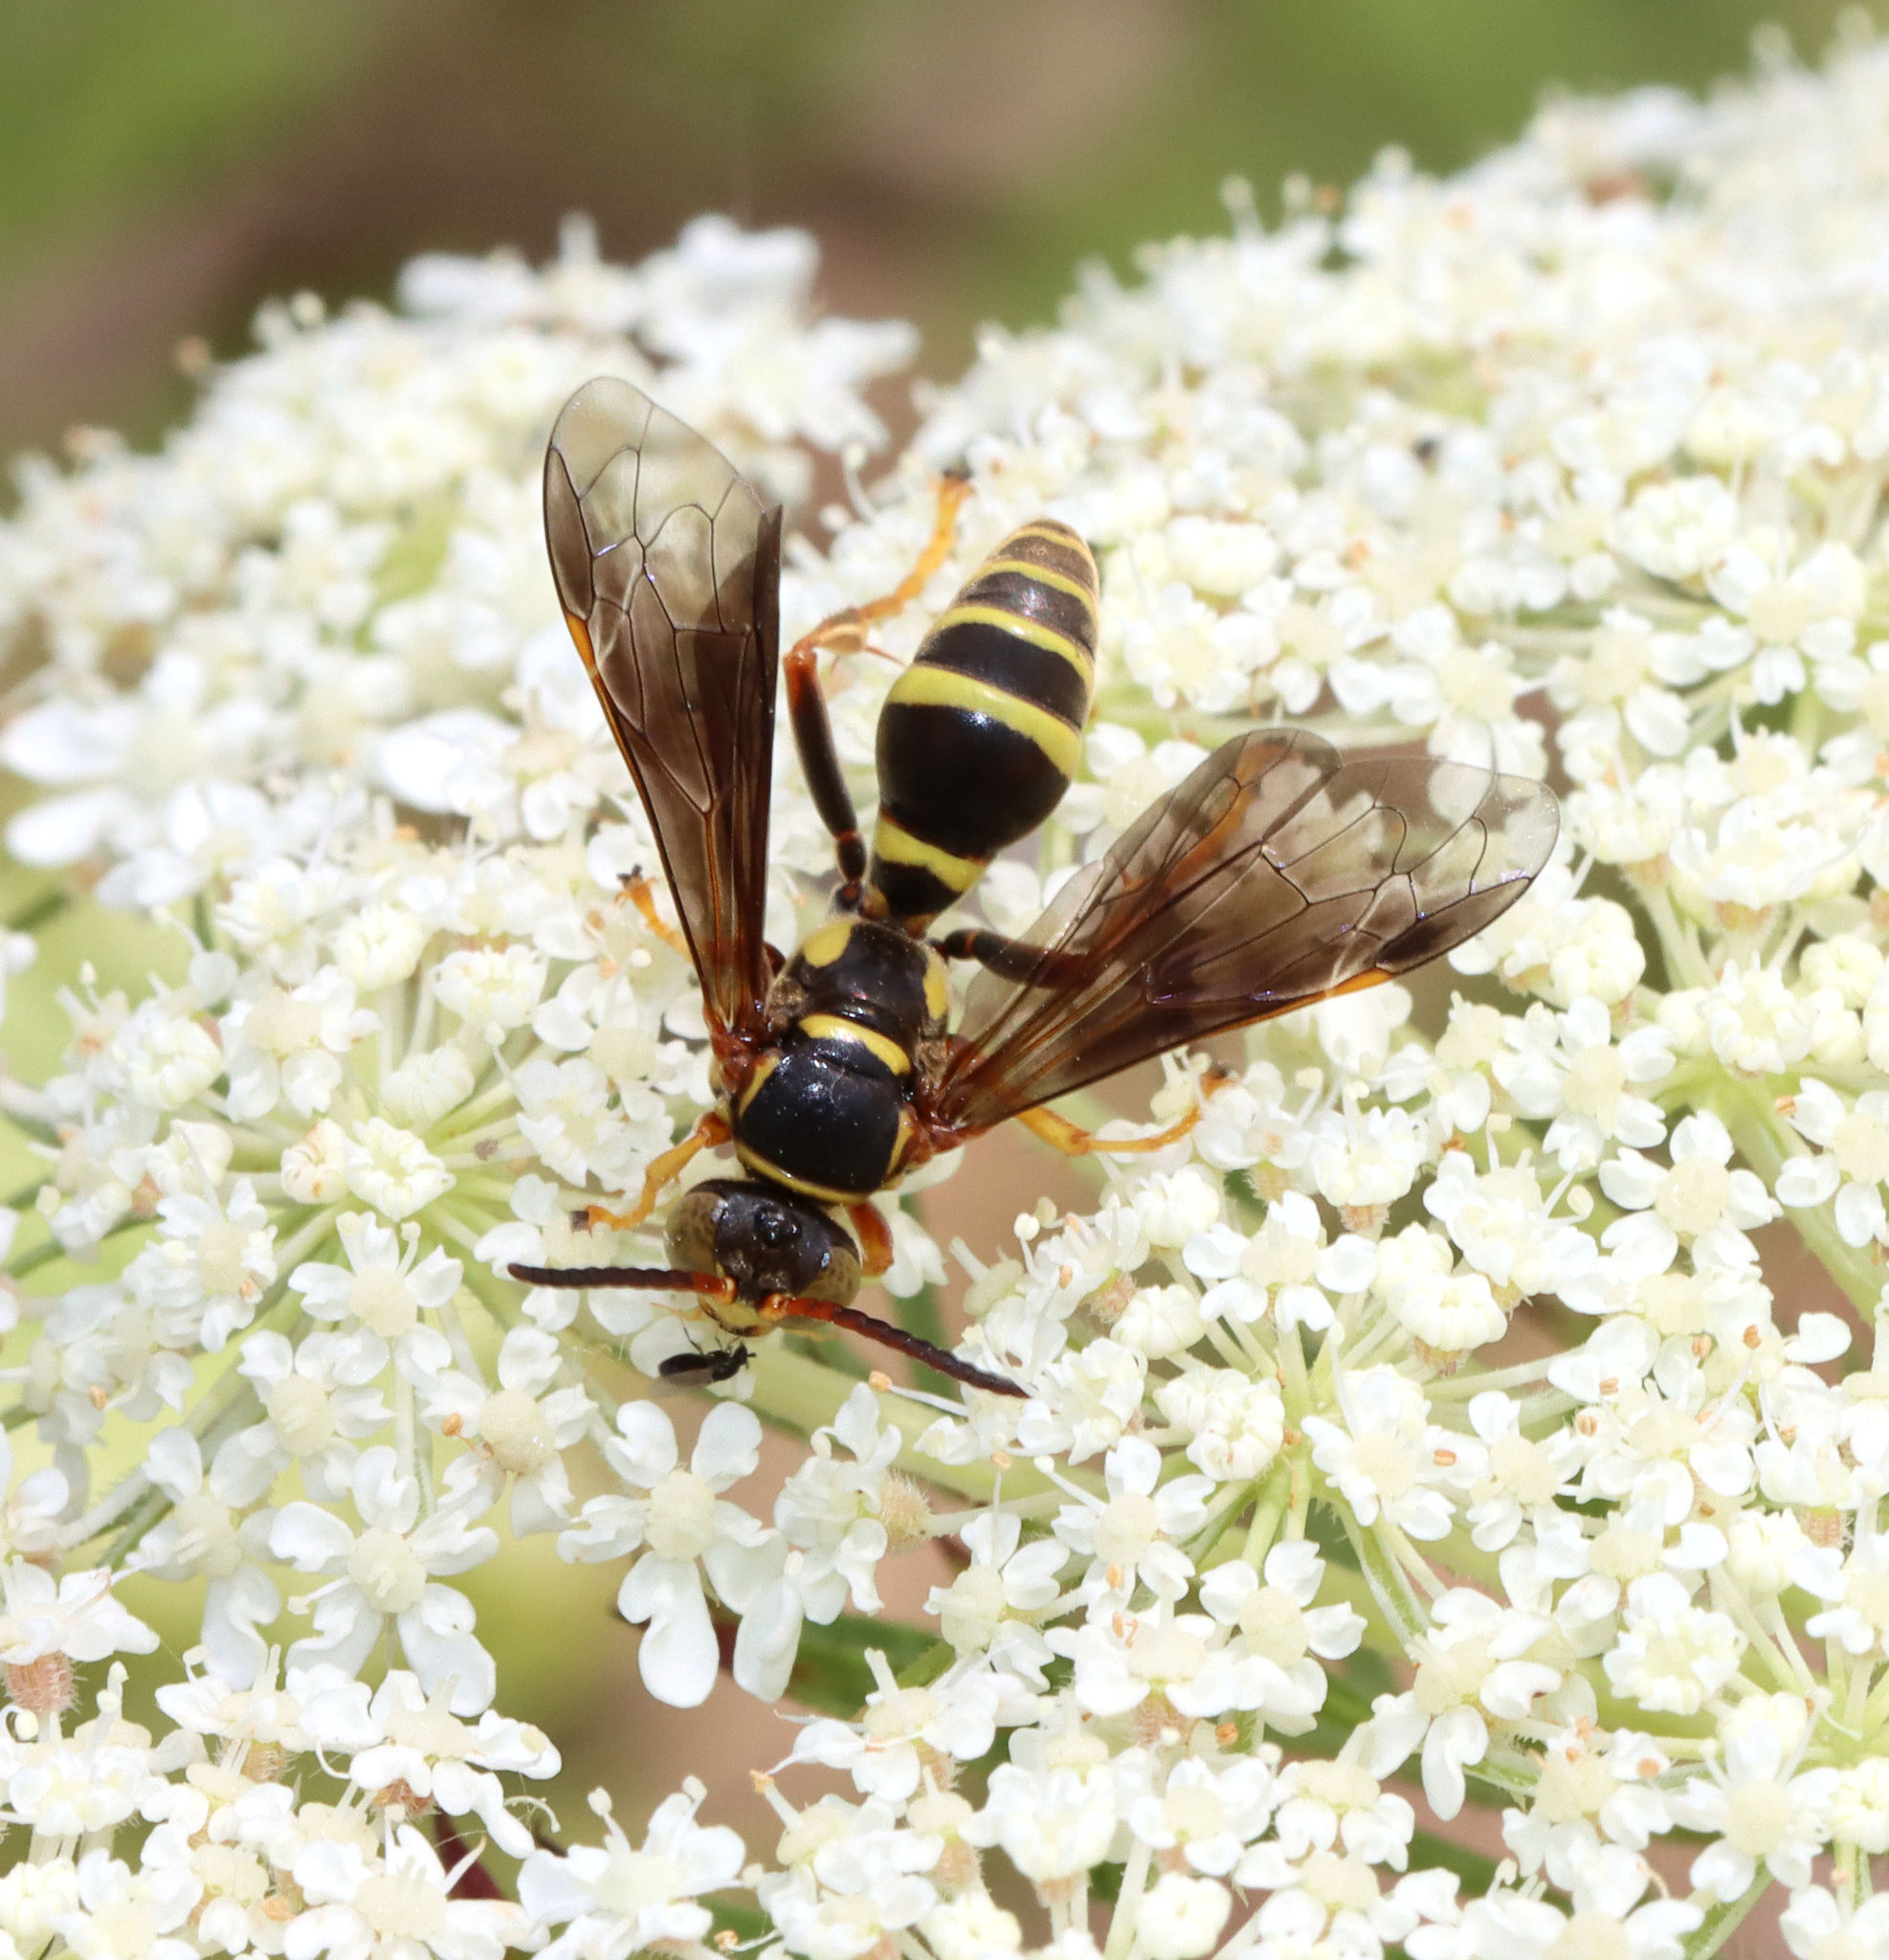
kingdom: Animalia
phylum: Arthropoda
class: Insecta
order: Hymenoptera
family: Crabronidae
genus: Saygorytes
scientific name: Saygorytes phaleratus
